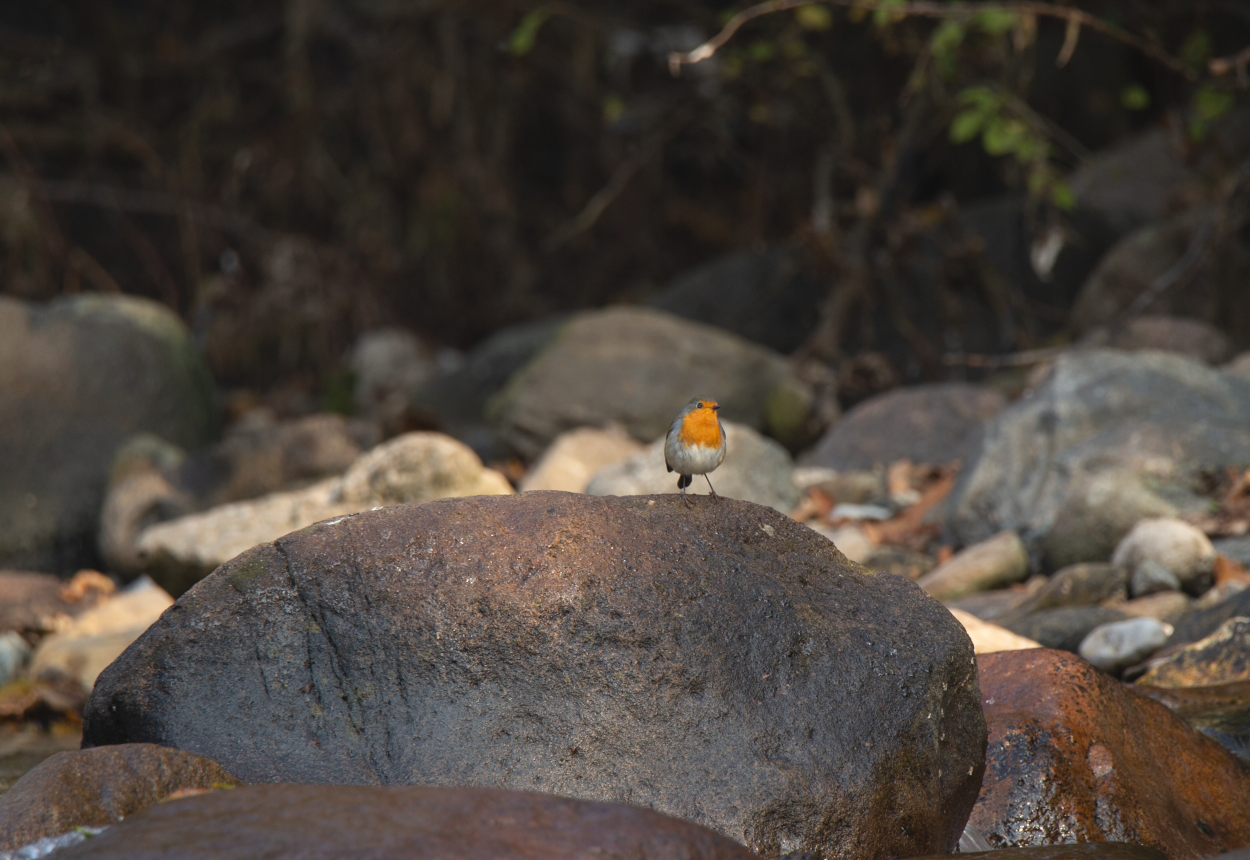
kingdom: Animalia
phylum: Chordata
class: Aves
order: Passeriformes
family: Muscicapidae
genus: Erithacus
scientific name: Erithacus rubecula
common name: European robin
